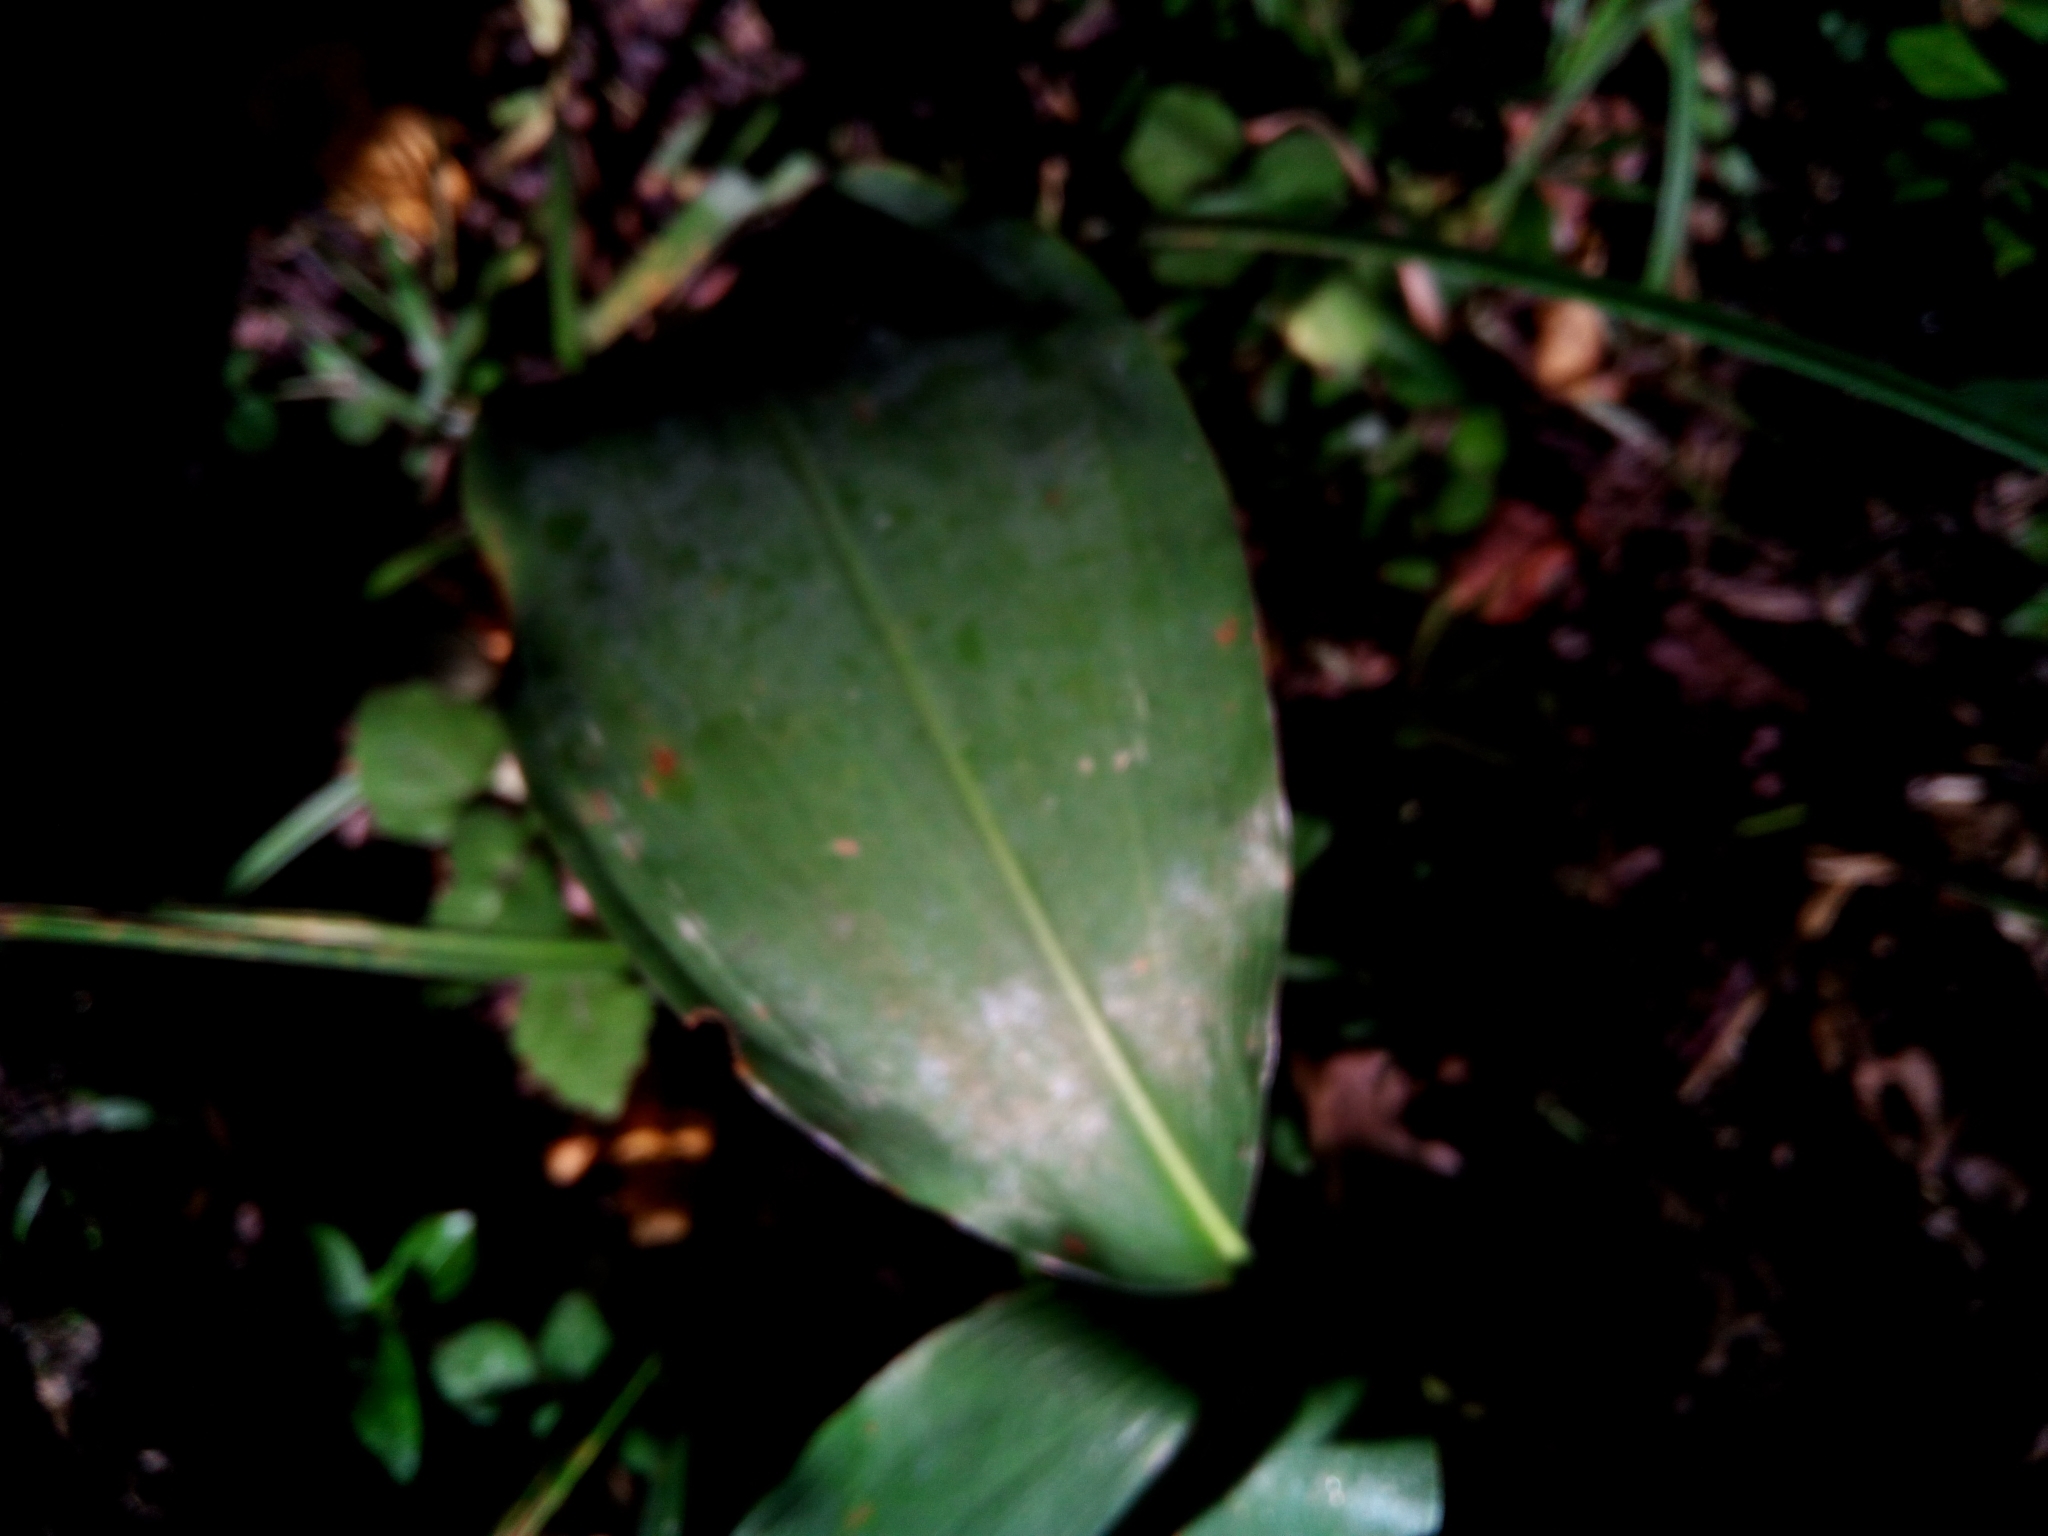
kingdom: Plantae
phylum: Tracheophyta
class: Liliopsida
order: Asparagales
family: Asparagaceae
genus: Convallaria
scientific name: Convallaria majalis
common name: Lily-of-the-valley
